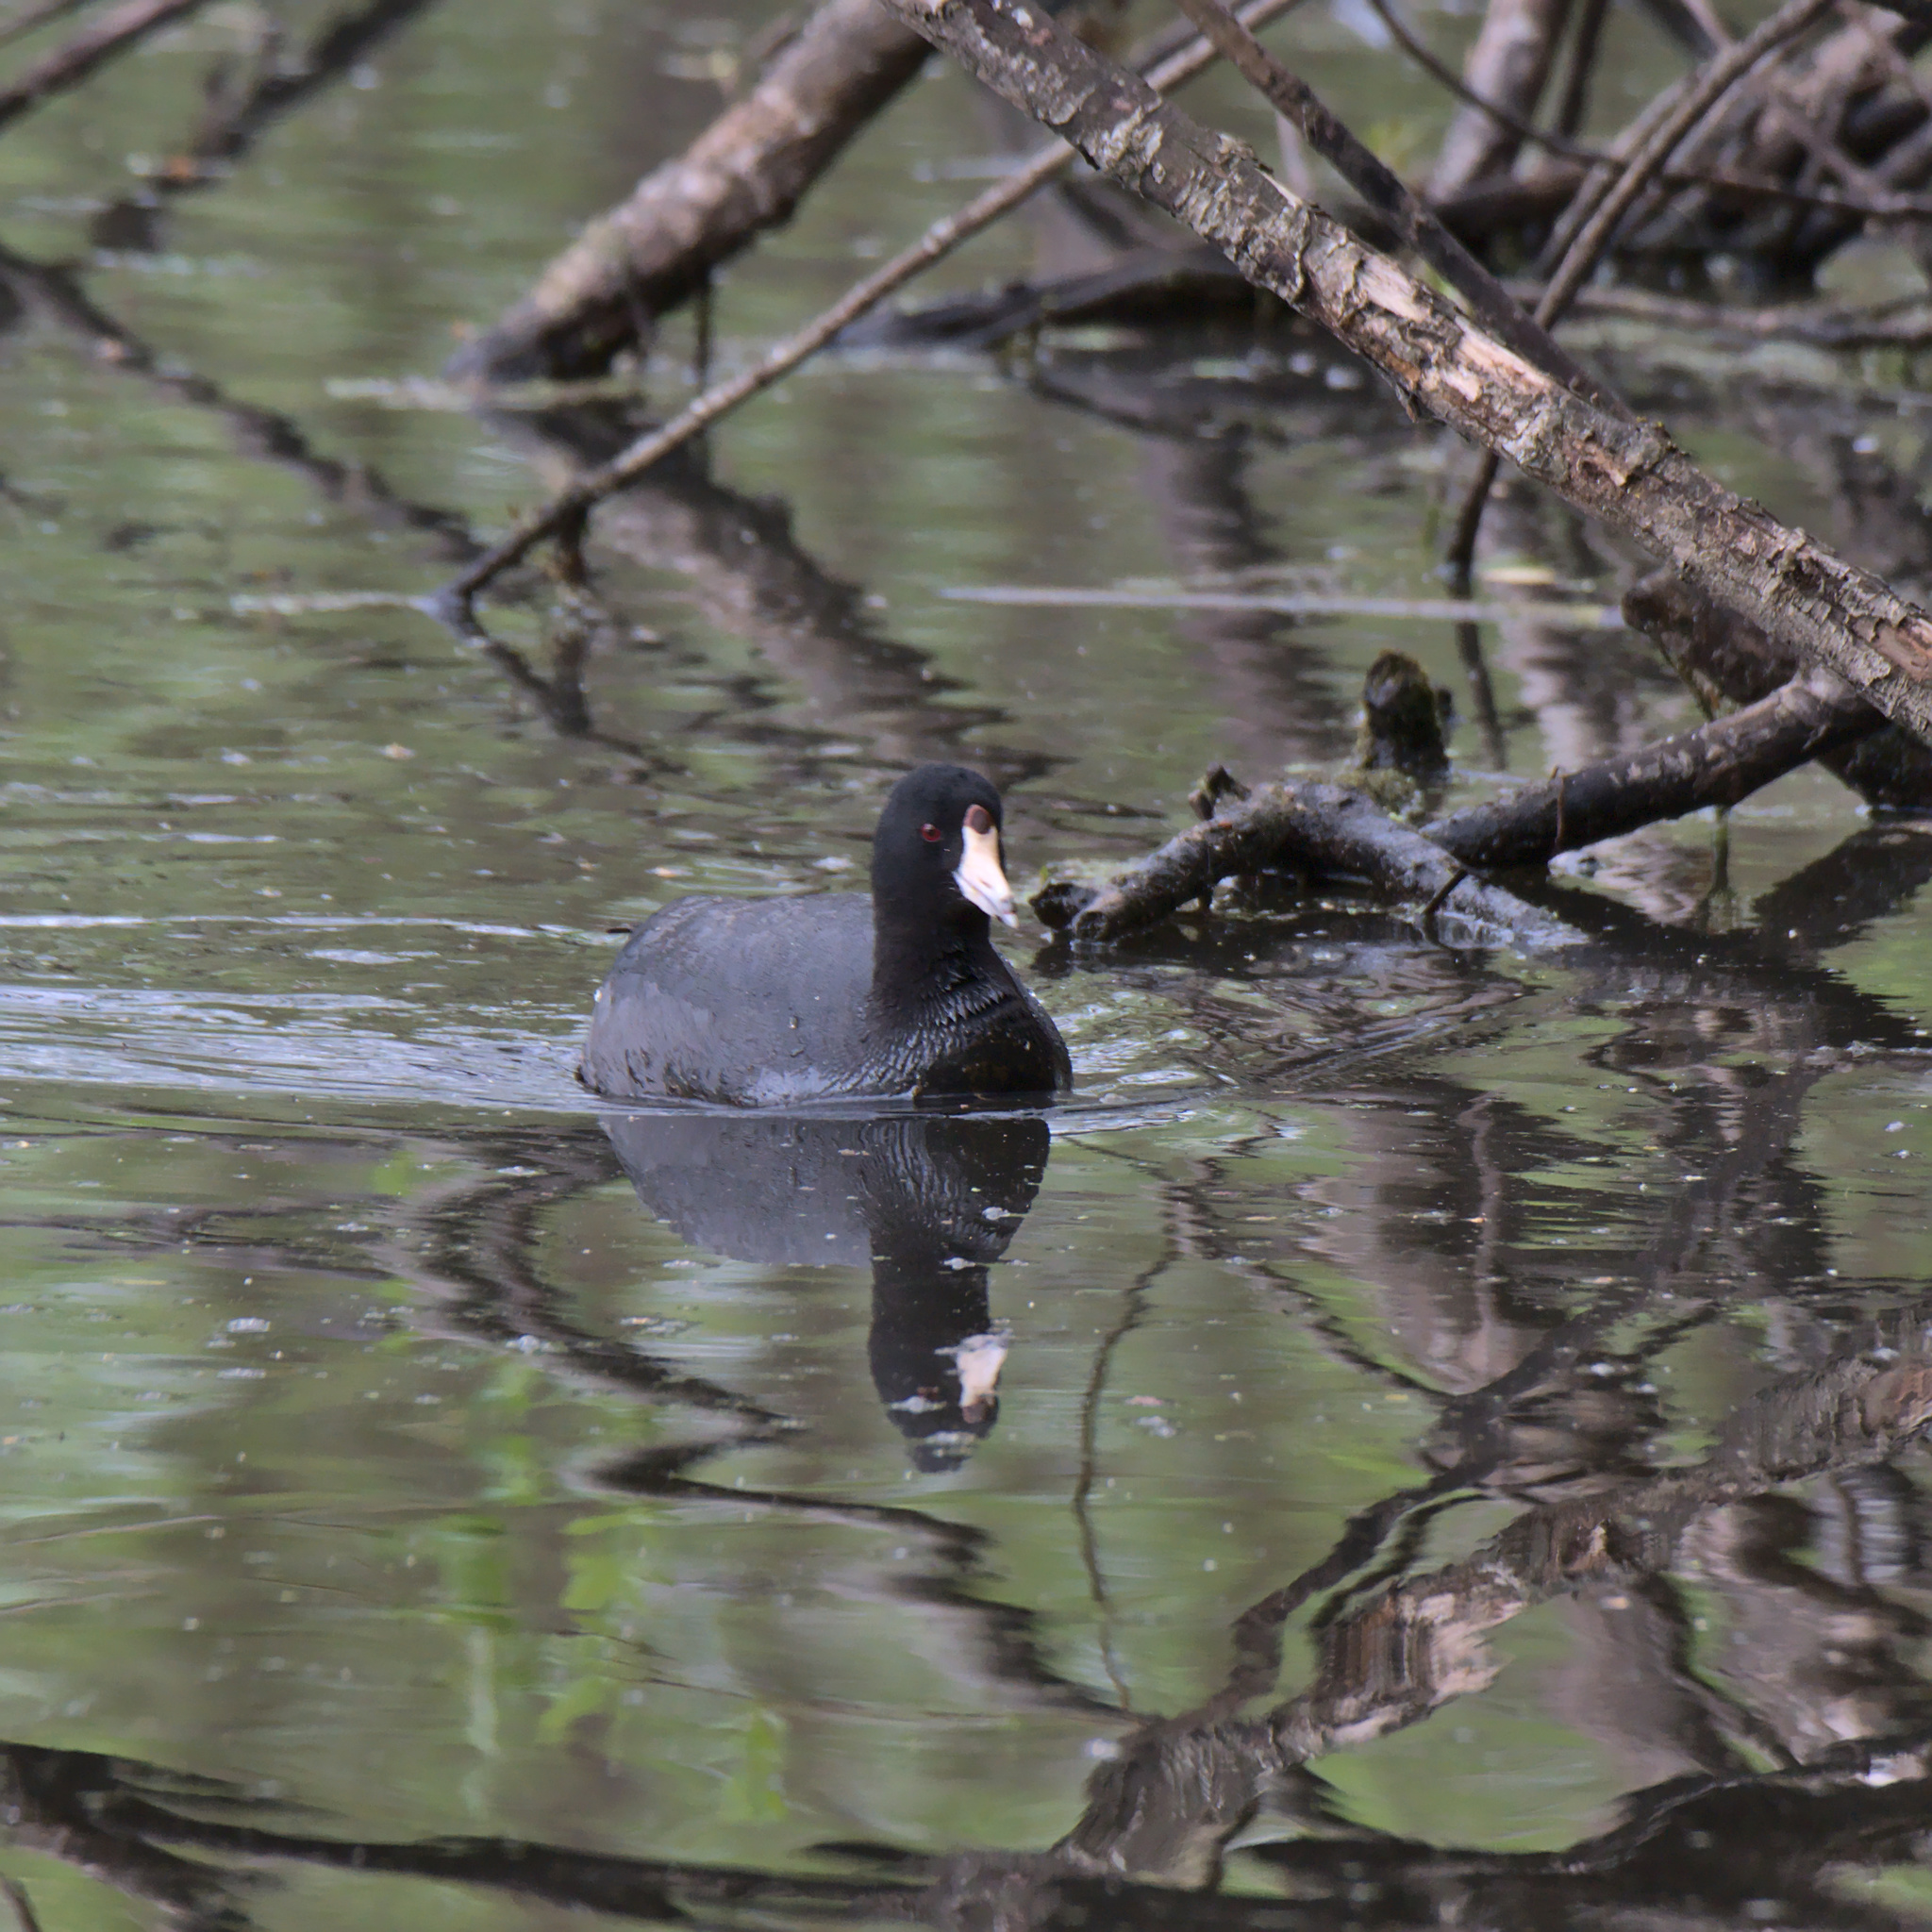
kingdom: Animalia
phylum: Chordata
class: Aves
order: Gruiformes
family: Rallidae
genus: Fulica
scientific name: Fulica americana
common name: American coot
